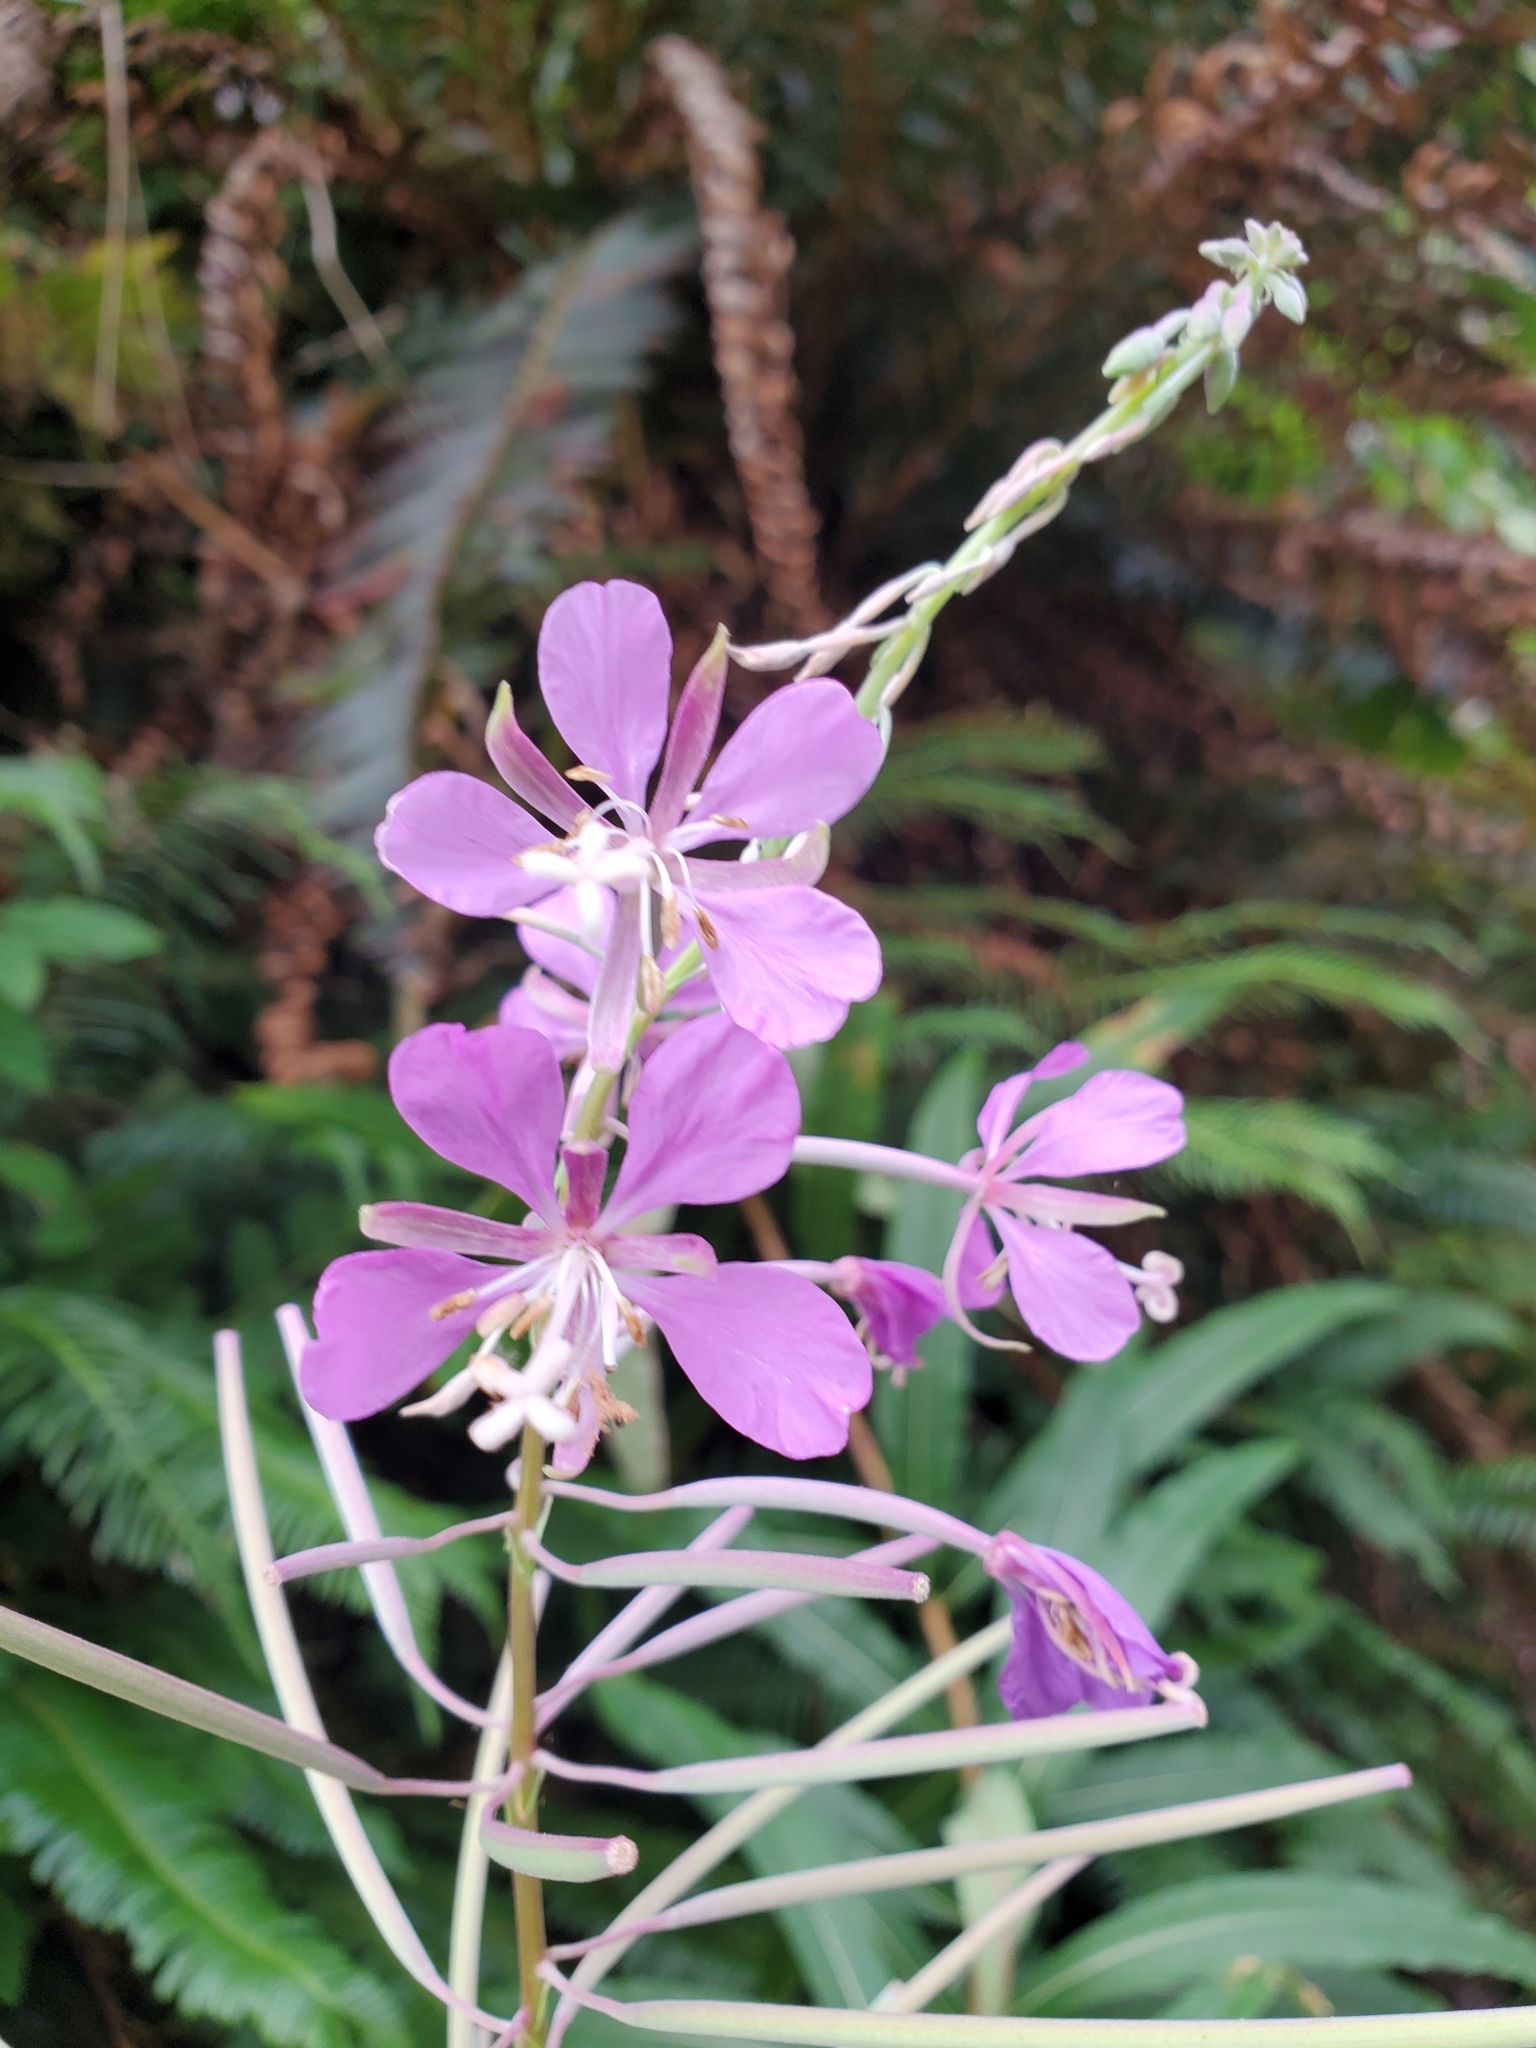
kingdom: Plantae
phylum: Tracheophyta
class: Magnoliopsida
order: Myrtales
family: Onagraceae
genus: Chamaenerion
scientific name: Chamaenerion angustifolium
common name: Fireweed
